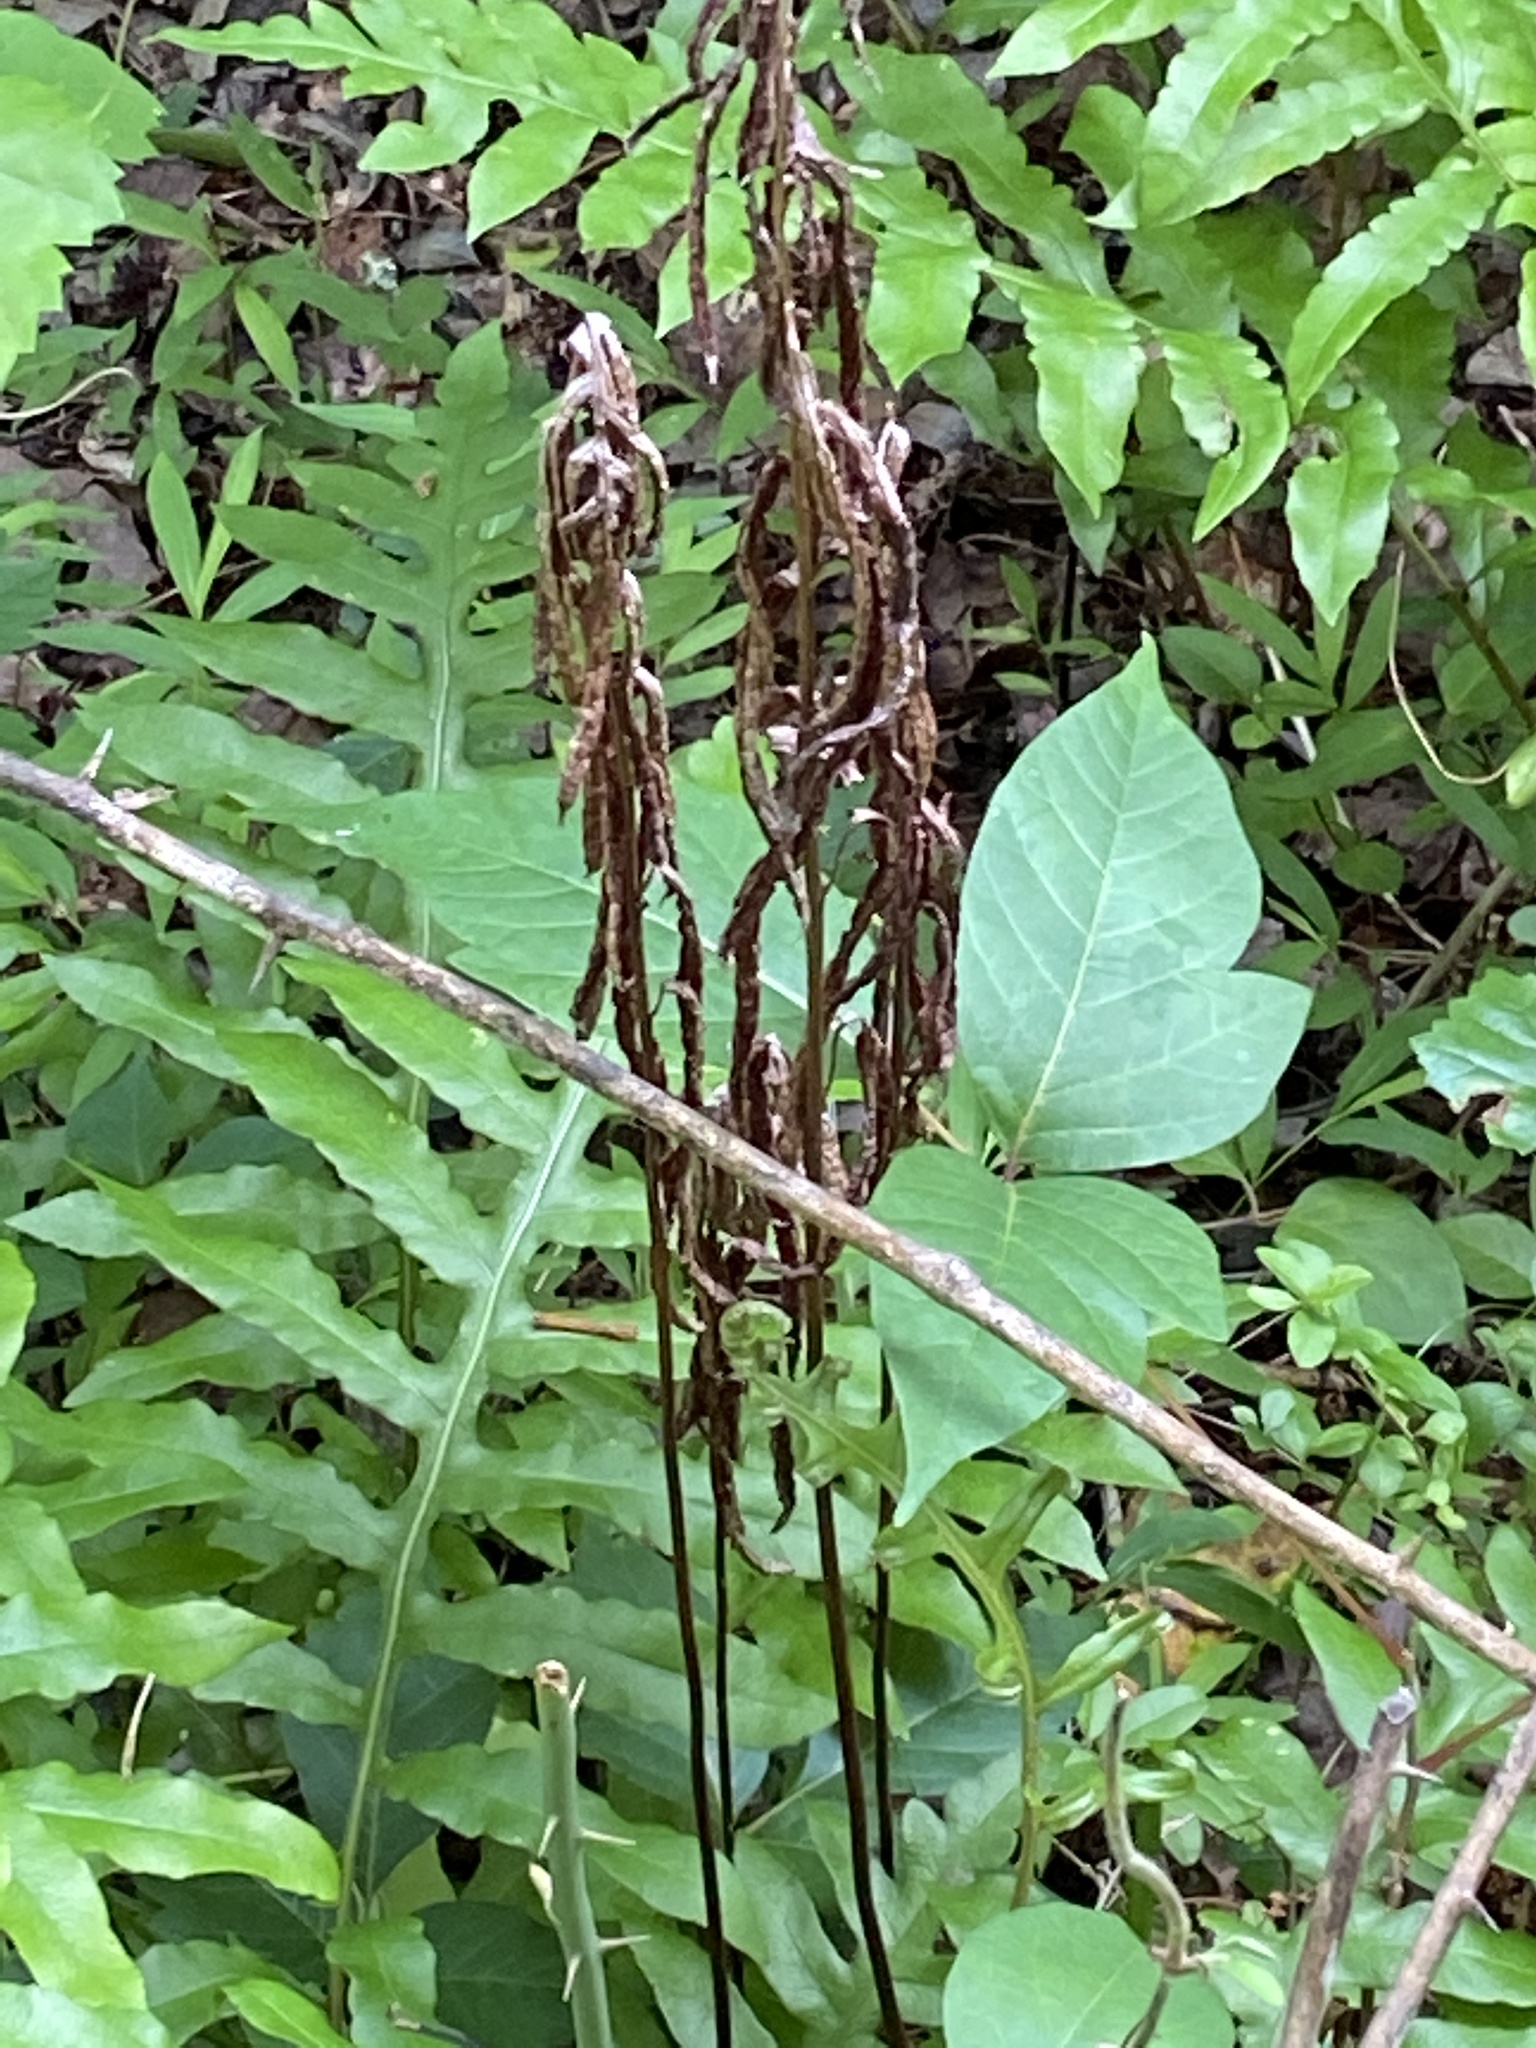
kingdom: Plantae
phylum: Tracheophyta
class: Polypodiopsida
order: Polypodiales
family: Blechnaceae
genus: Lorinseria
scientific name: Lorinseria areolata
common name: Dwarf chain fern
